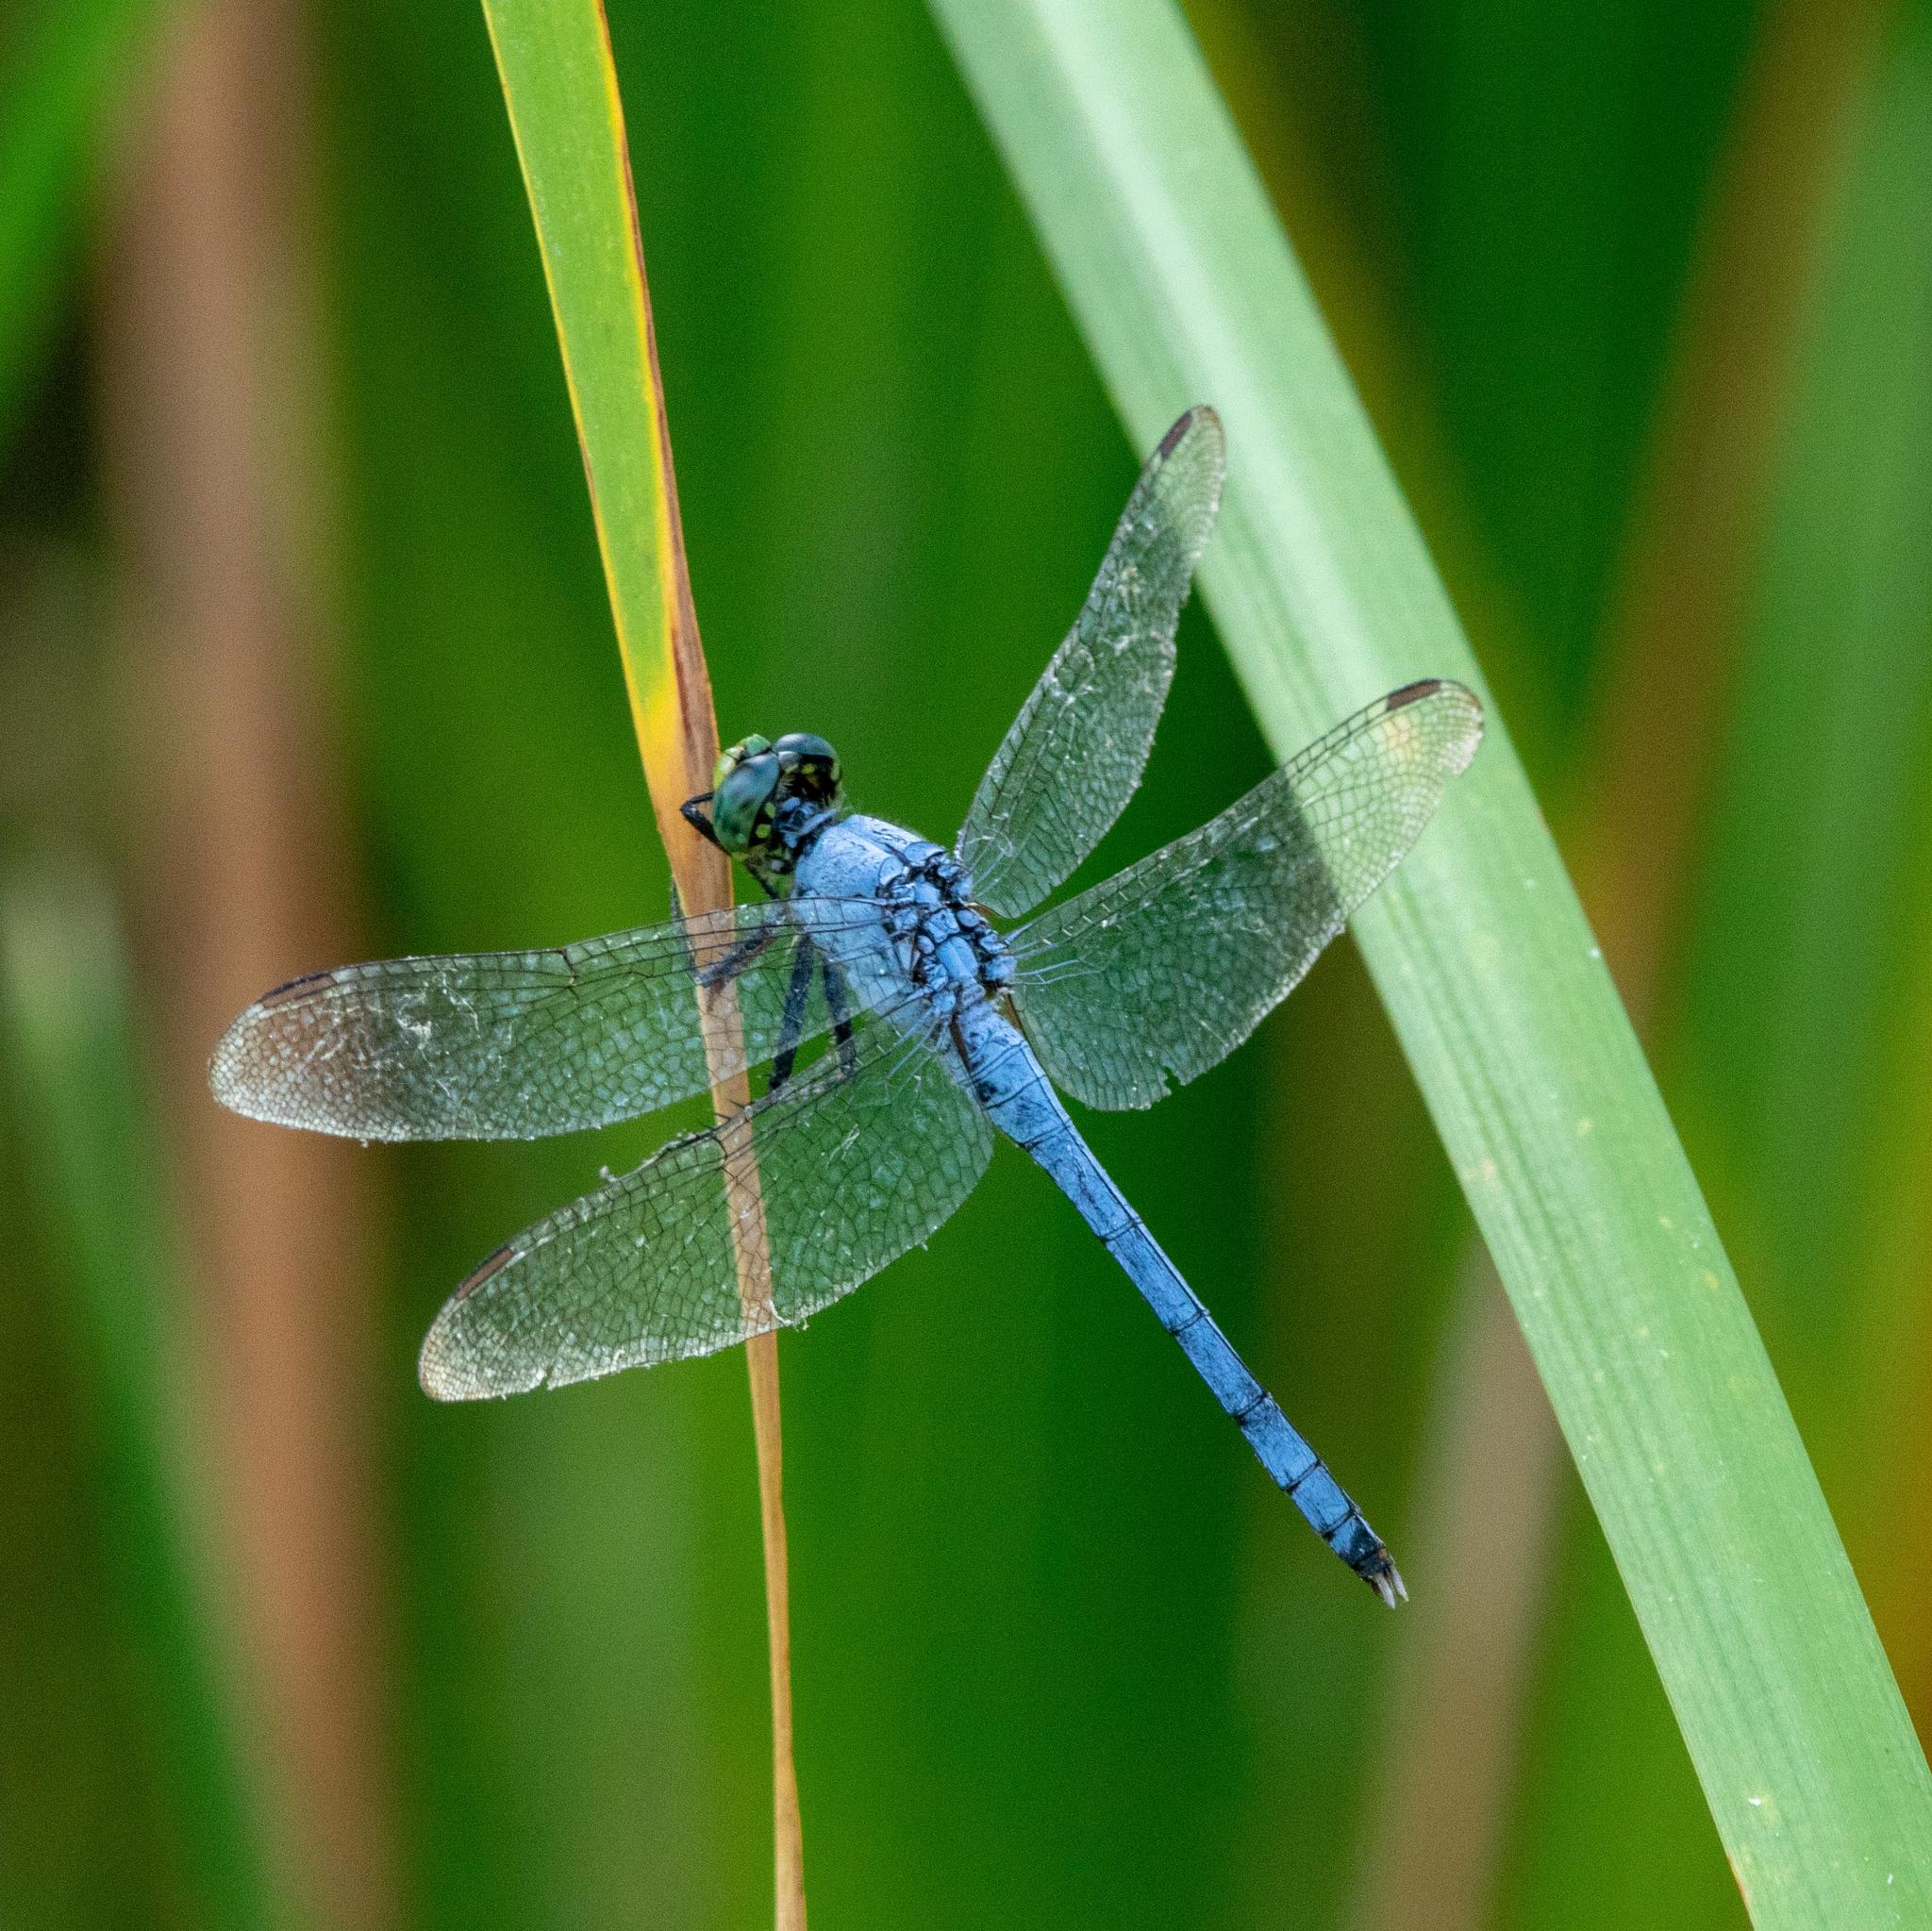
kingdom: Animalia
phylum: Arthropoda
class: Insecta
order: Odonata
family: Libellulidae
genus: Erythemis
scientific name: Erythemis simplicicollis
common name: Eastern pondhawk
